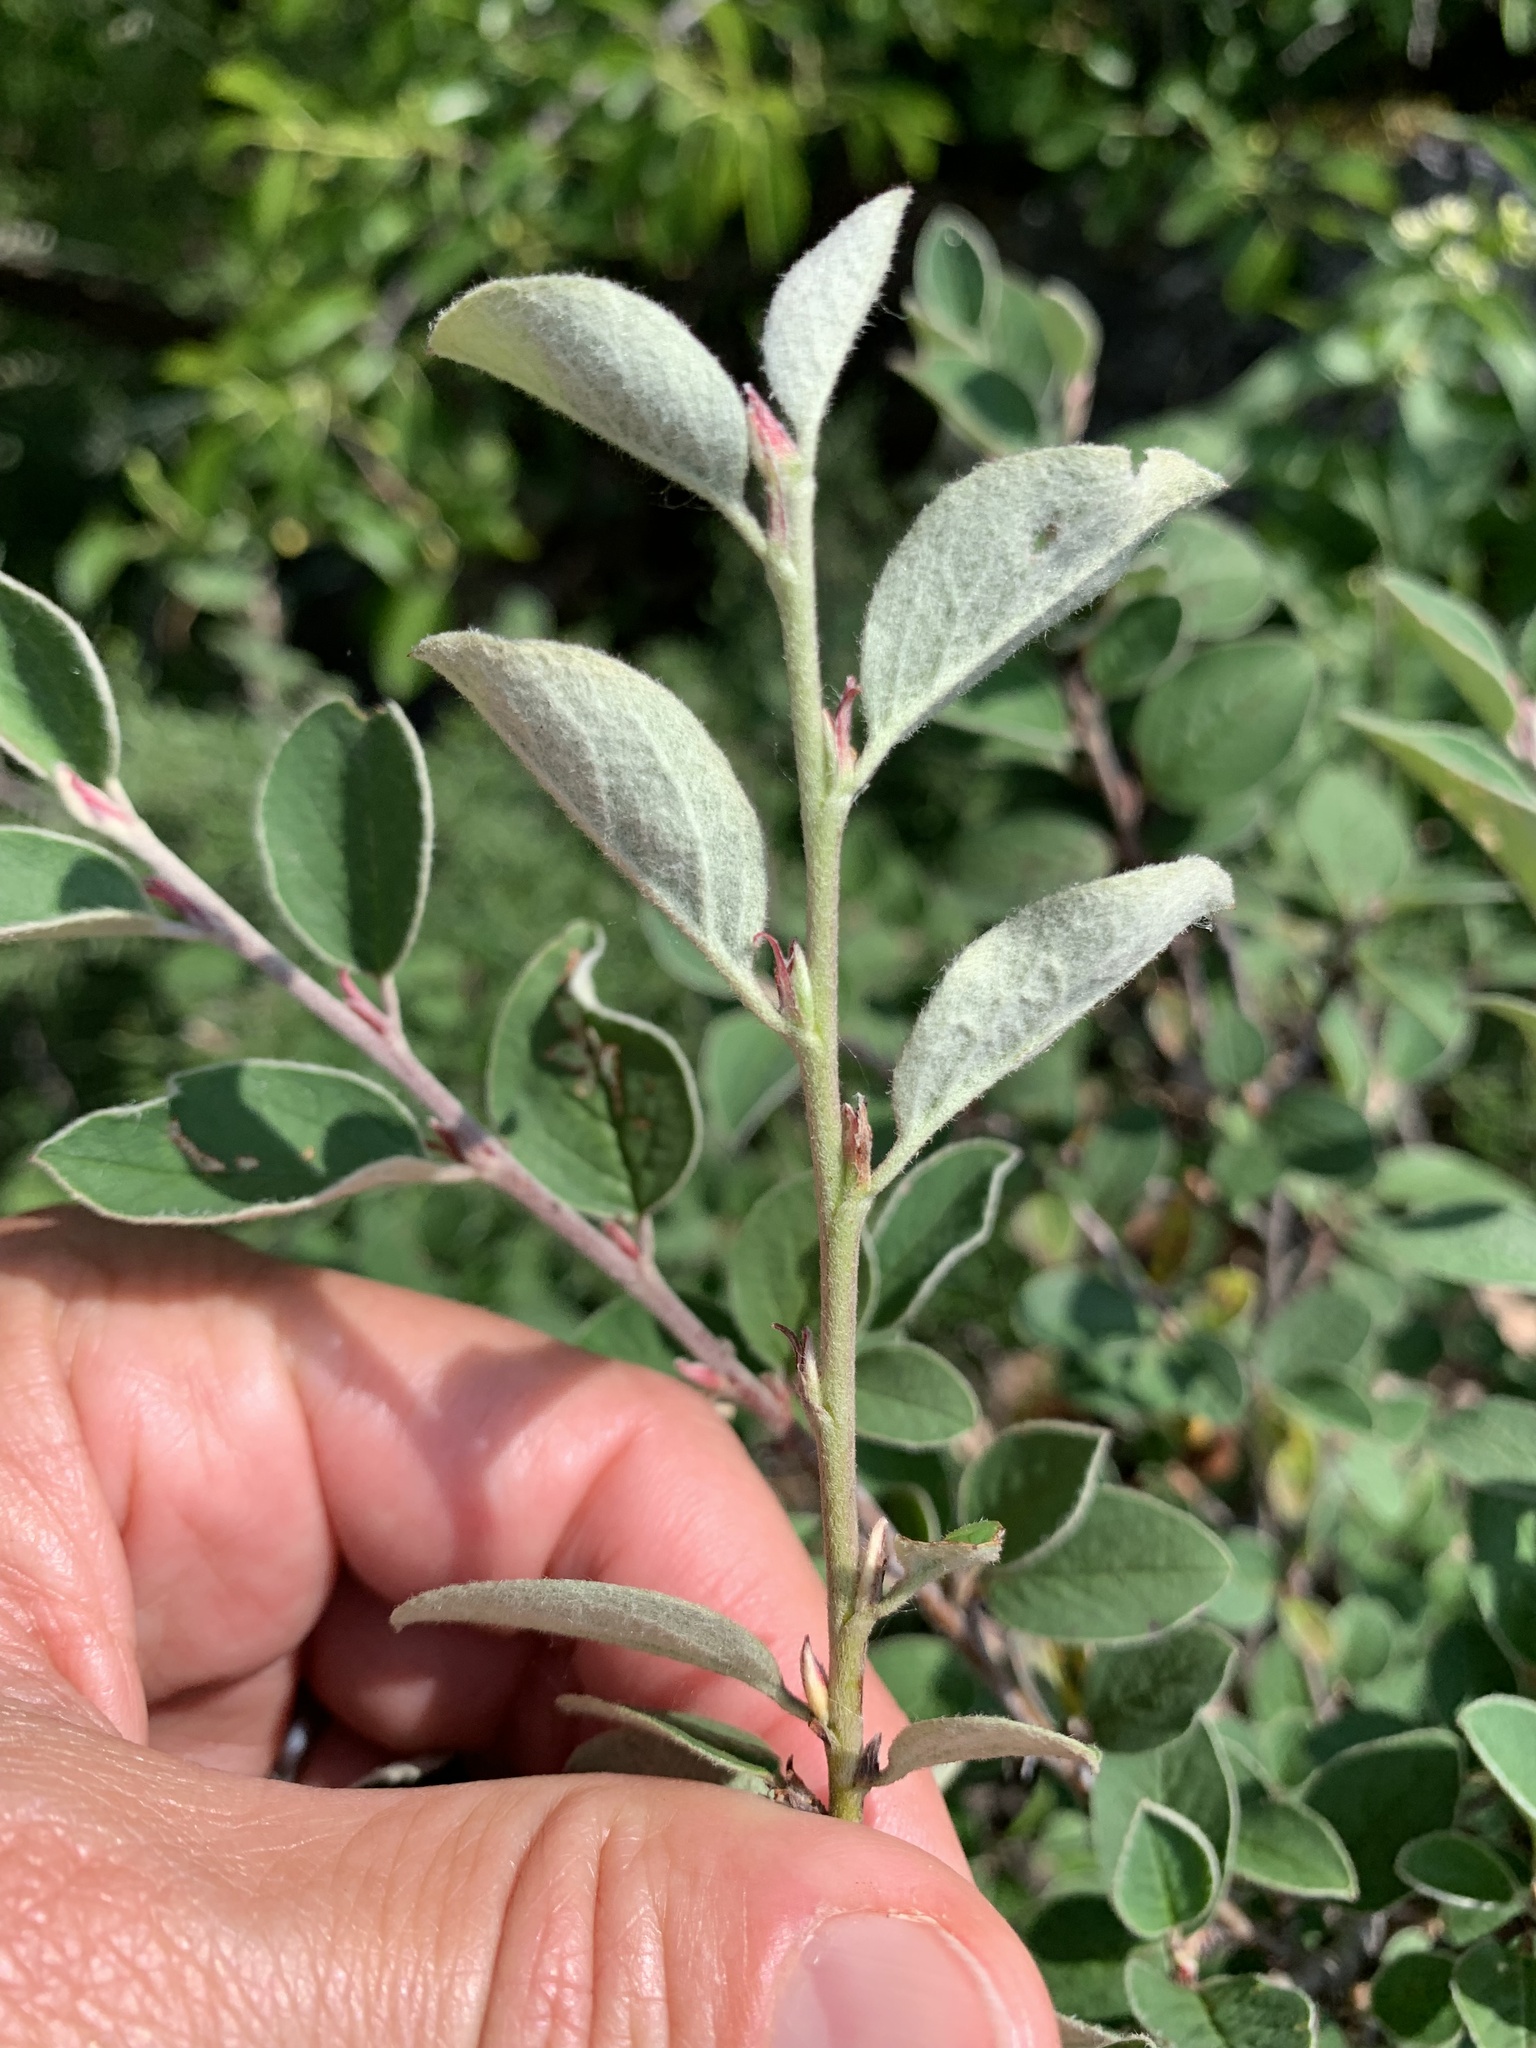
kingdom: Plantae
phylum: Tracheophyta
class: Magnoliopsida
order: Rosales
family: Rosaceae
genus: Cotoneaster
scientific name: Cotoneaster integerrimus
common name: Wild cotoneaster
